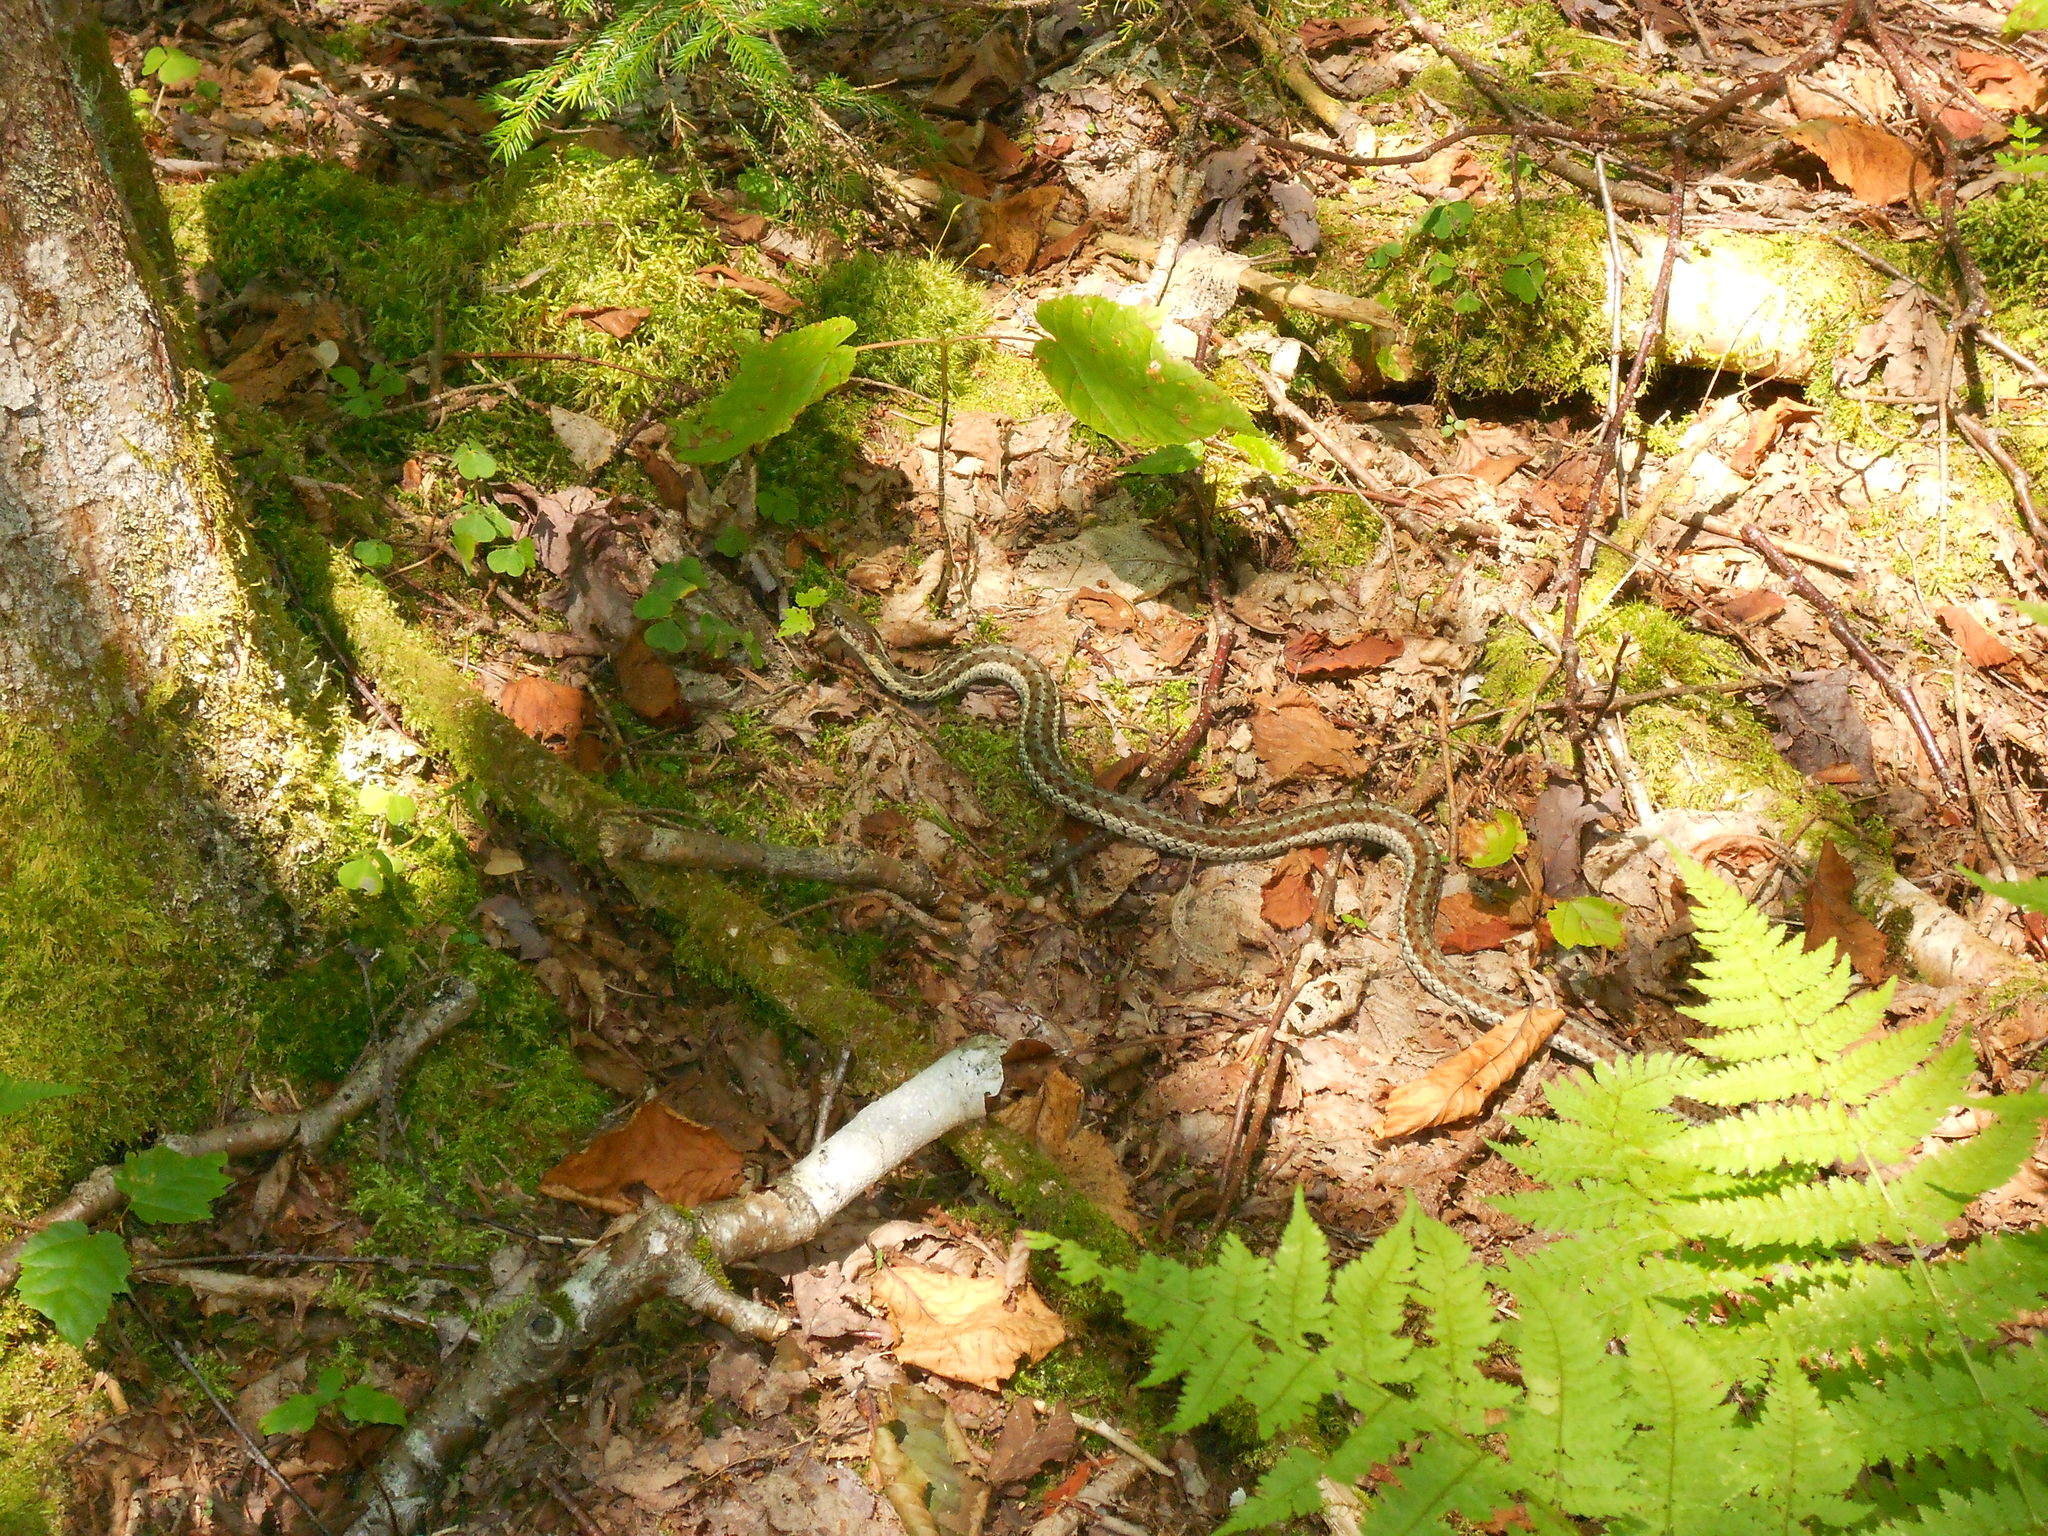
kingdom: Animalia
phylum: Chordata
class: Squamata
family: Colubridae
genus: Thamnophis
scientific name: Thamnophis sirtalis
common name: Common garter snake
